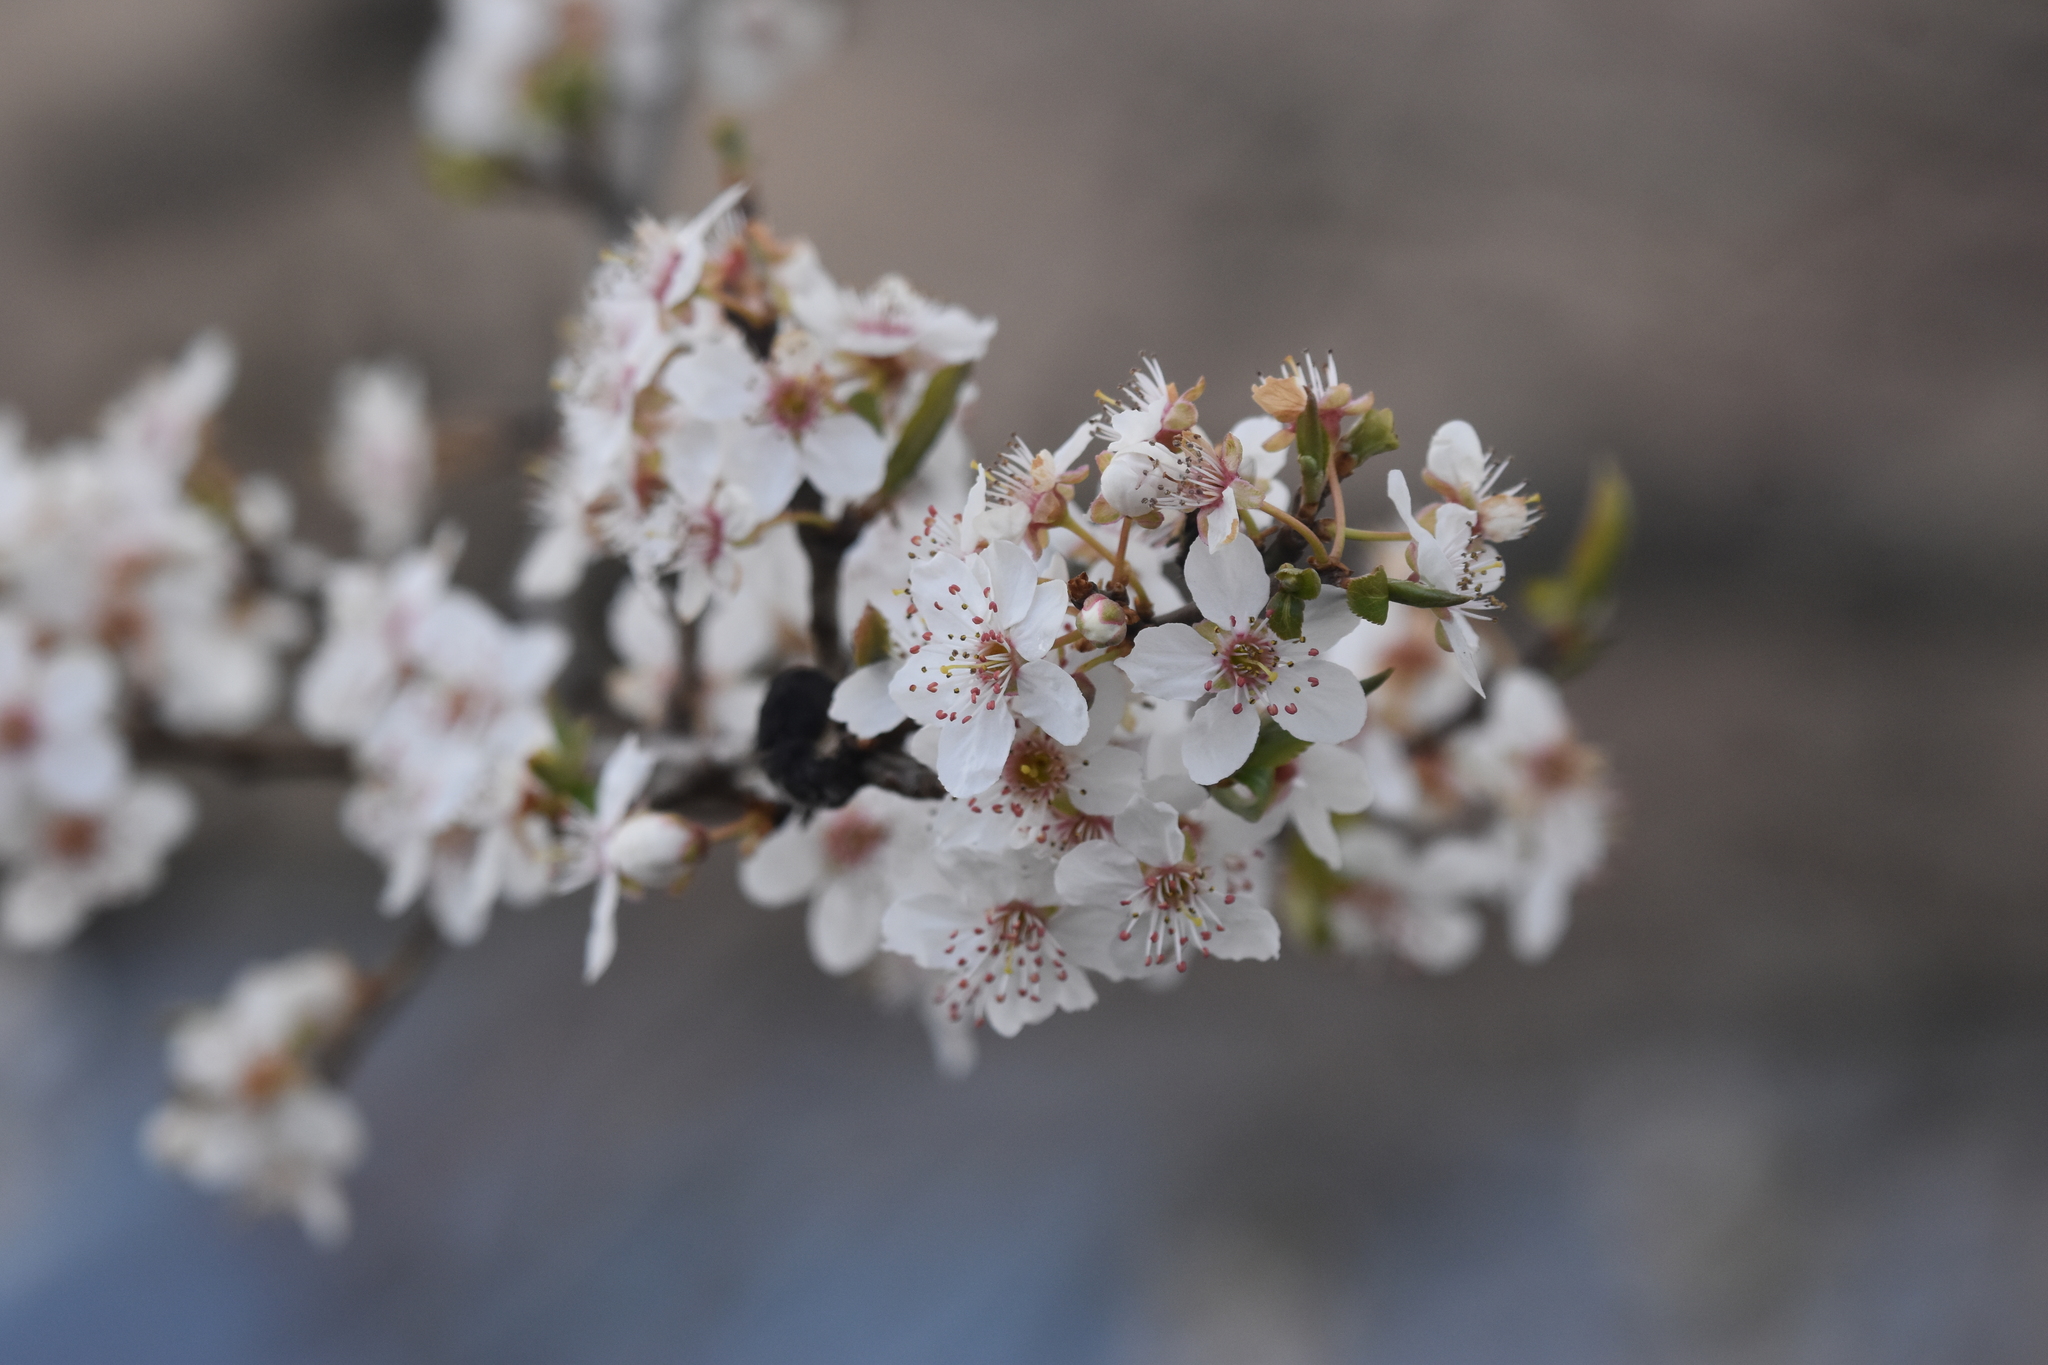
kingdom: Plantae
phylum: Tracheophyta
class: Magnoliopsida
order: Rosales
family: Rosaceae
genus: Prunus
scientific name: Prunus cerasifera
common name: Cherry plum
